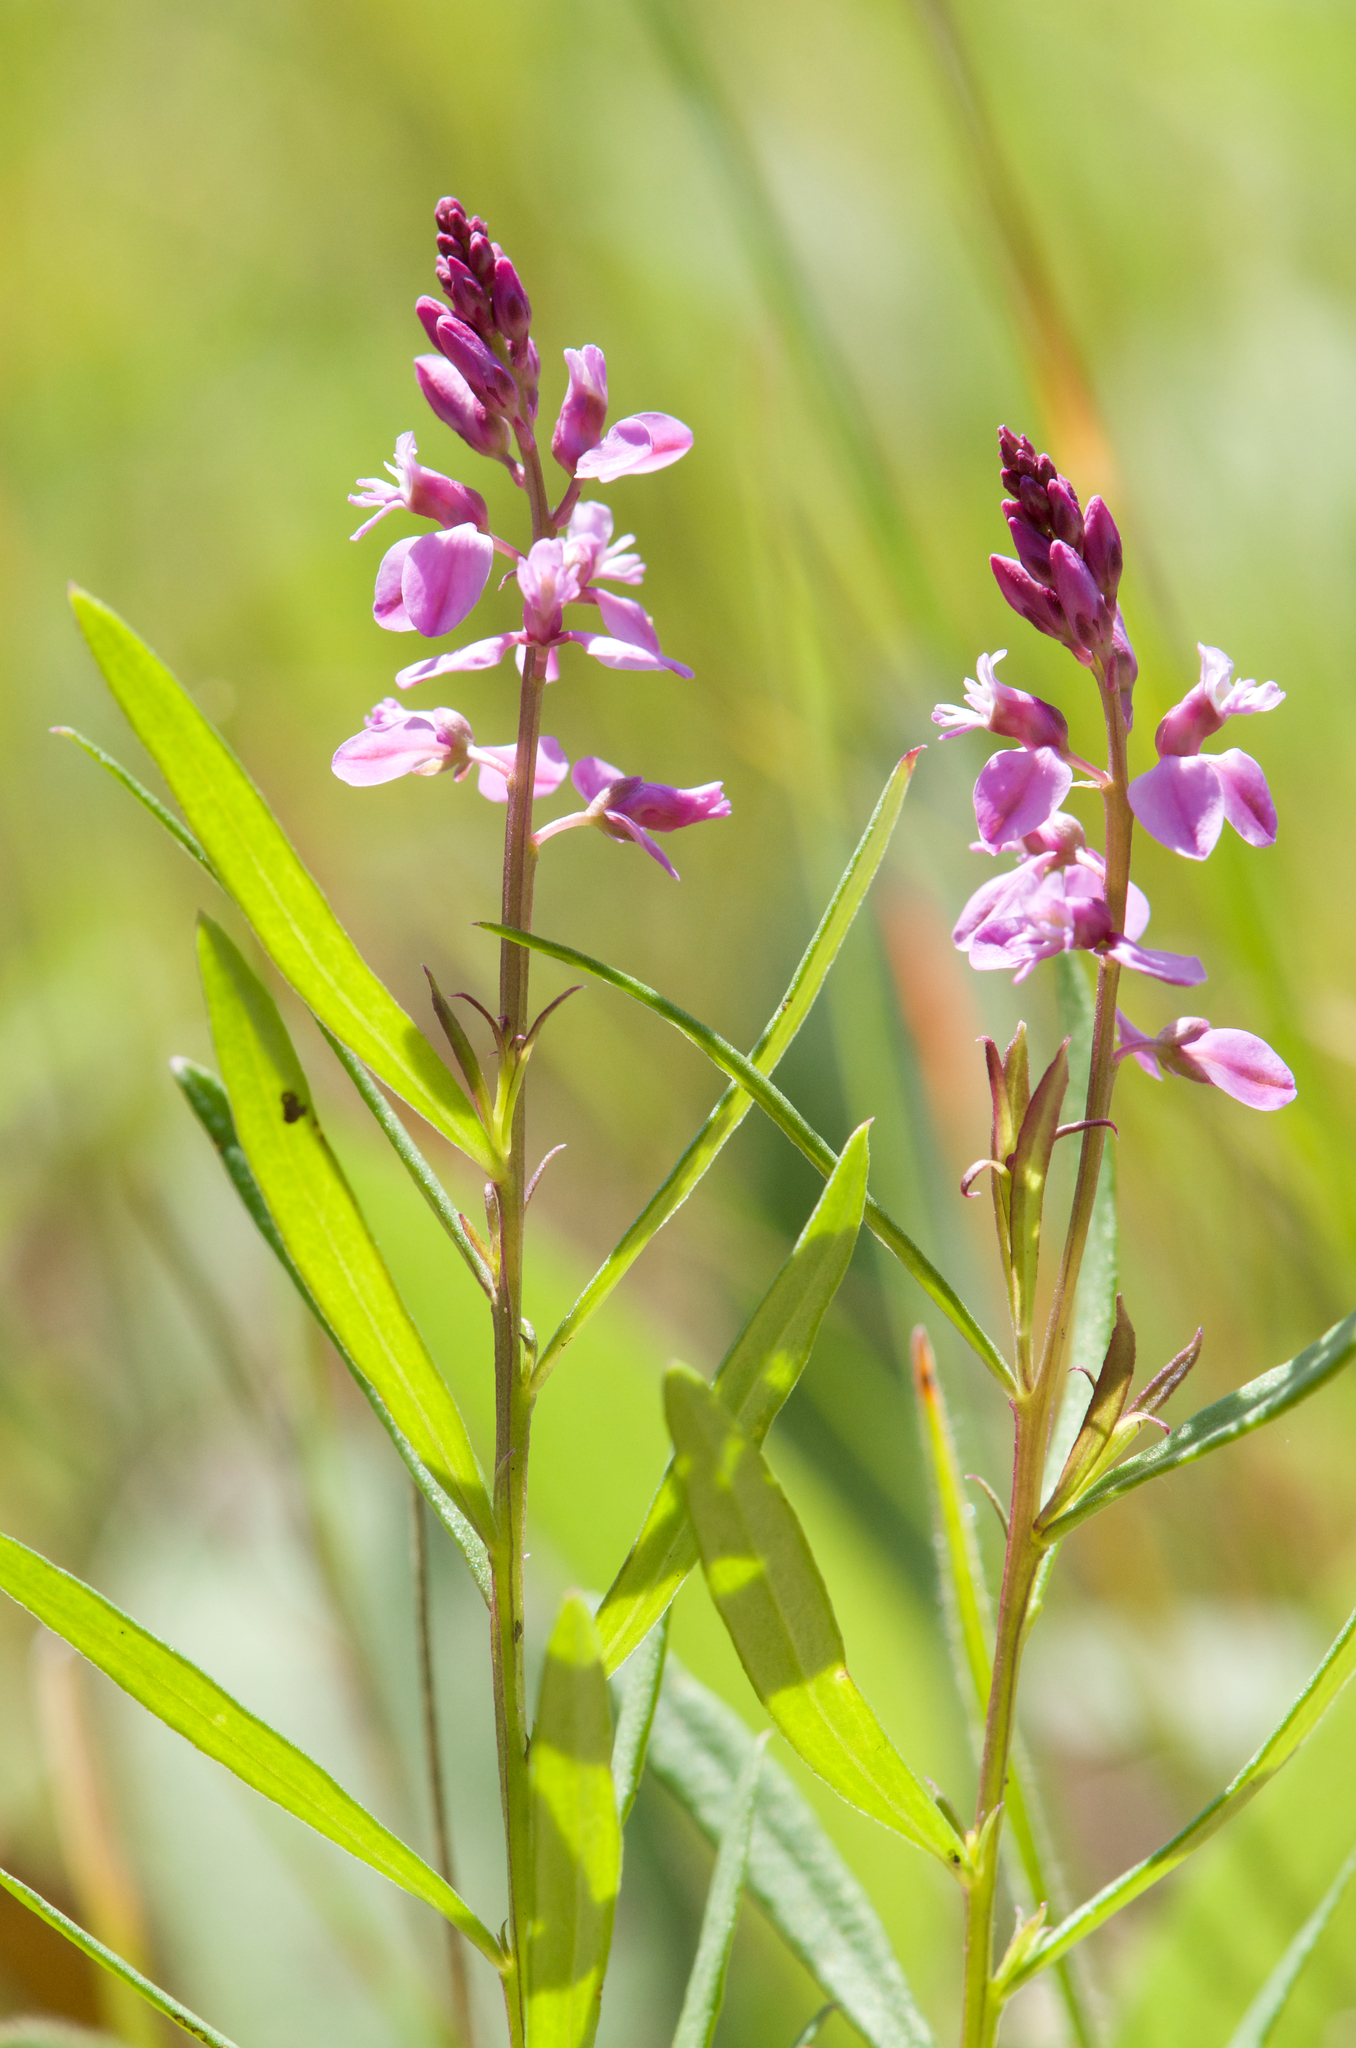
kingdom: Plantae
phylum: Tracheophyta
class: Magnoliopsida
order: Fabales
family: Polygalaceae
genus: Polygala
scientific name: Polygala polygama
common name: Bitter milkwort
